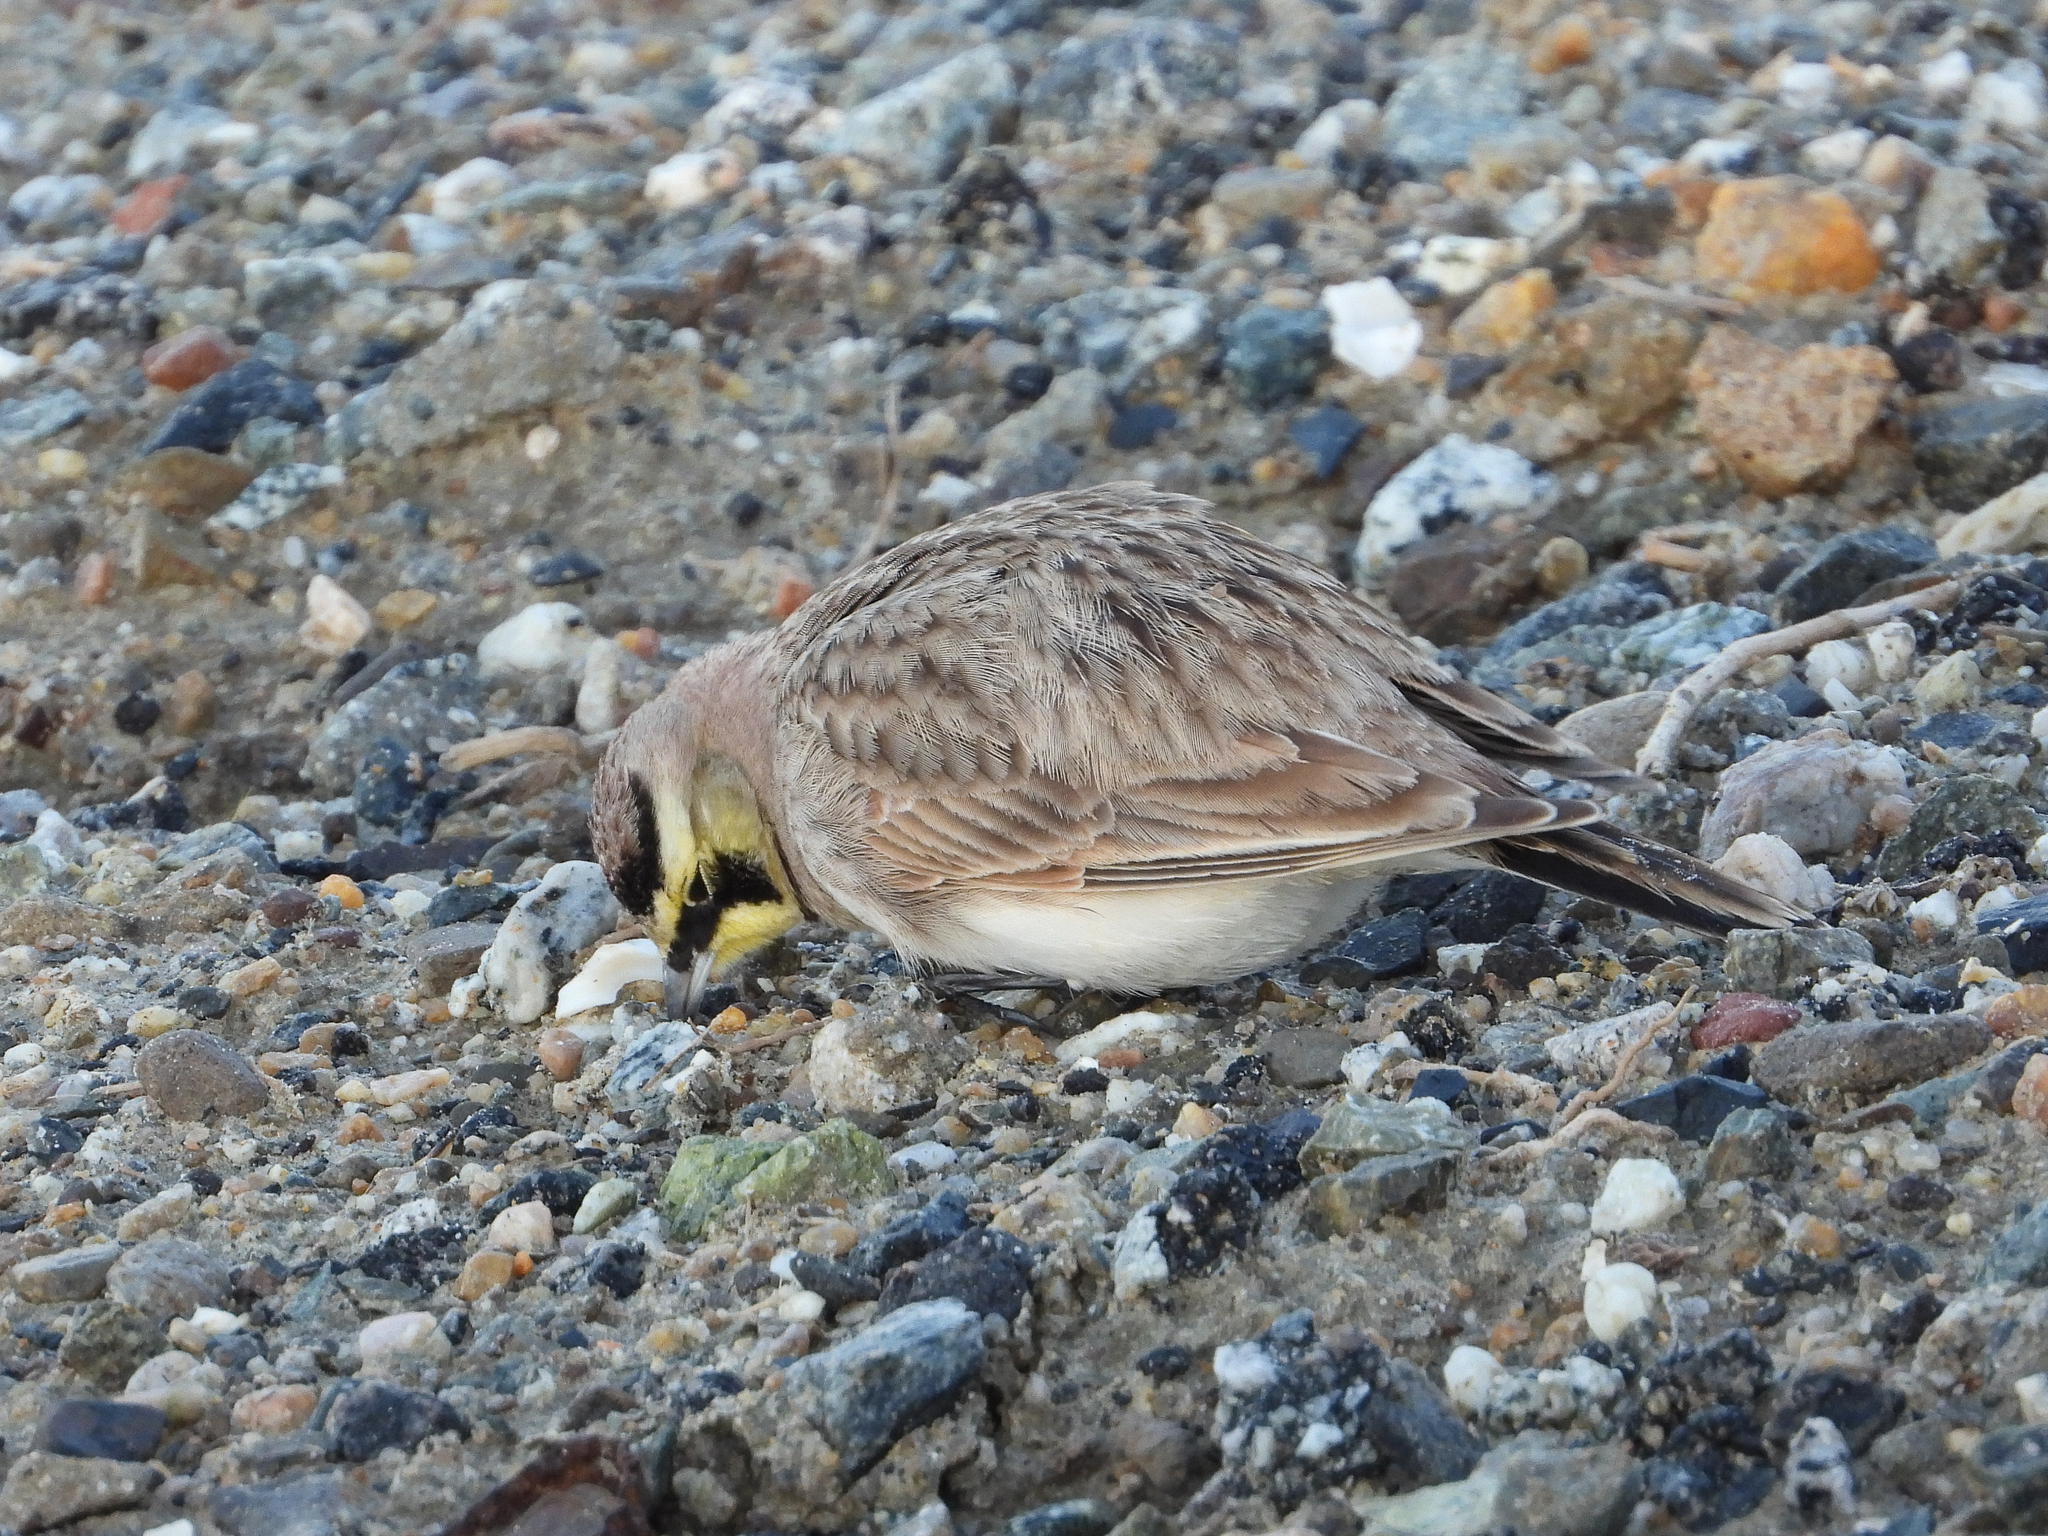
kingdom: Animalia
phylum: Chordata
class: Aves
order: Passeriformes
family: Alaudidae
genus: Eremophila
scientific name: Eremophila alpestris
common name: Horned lark
